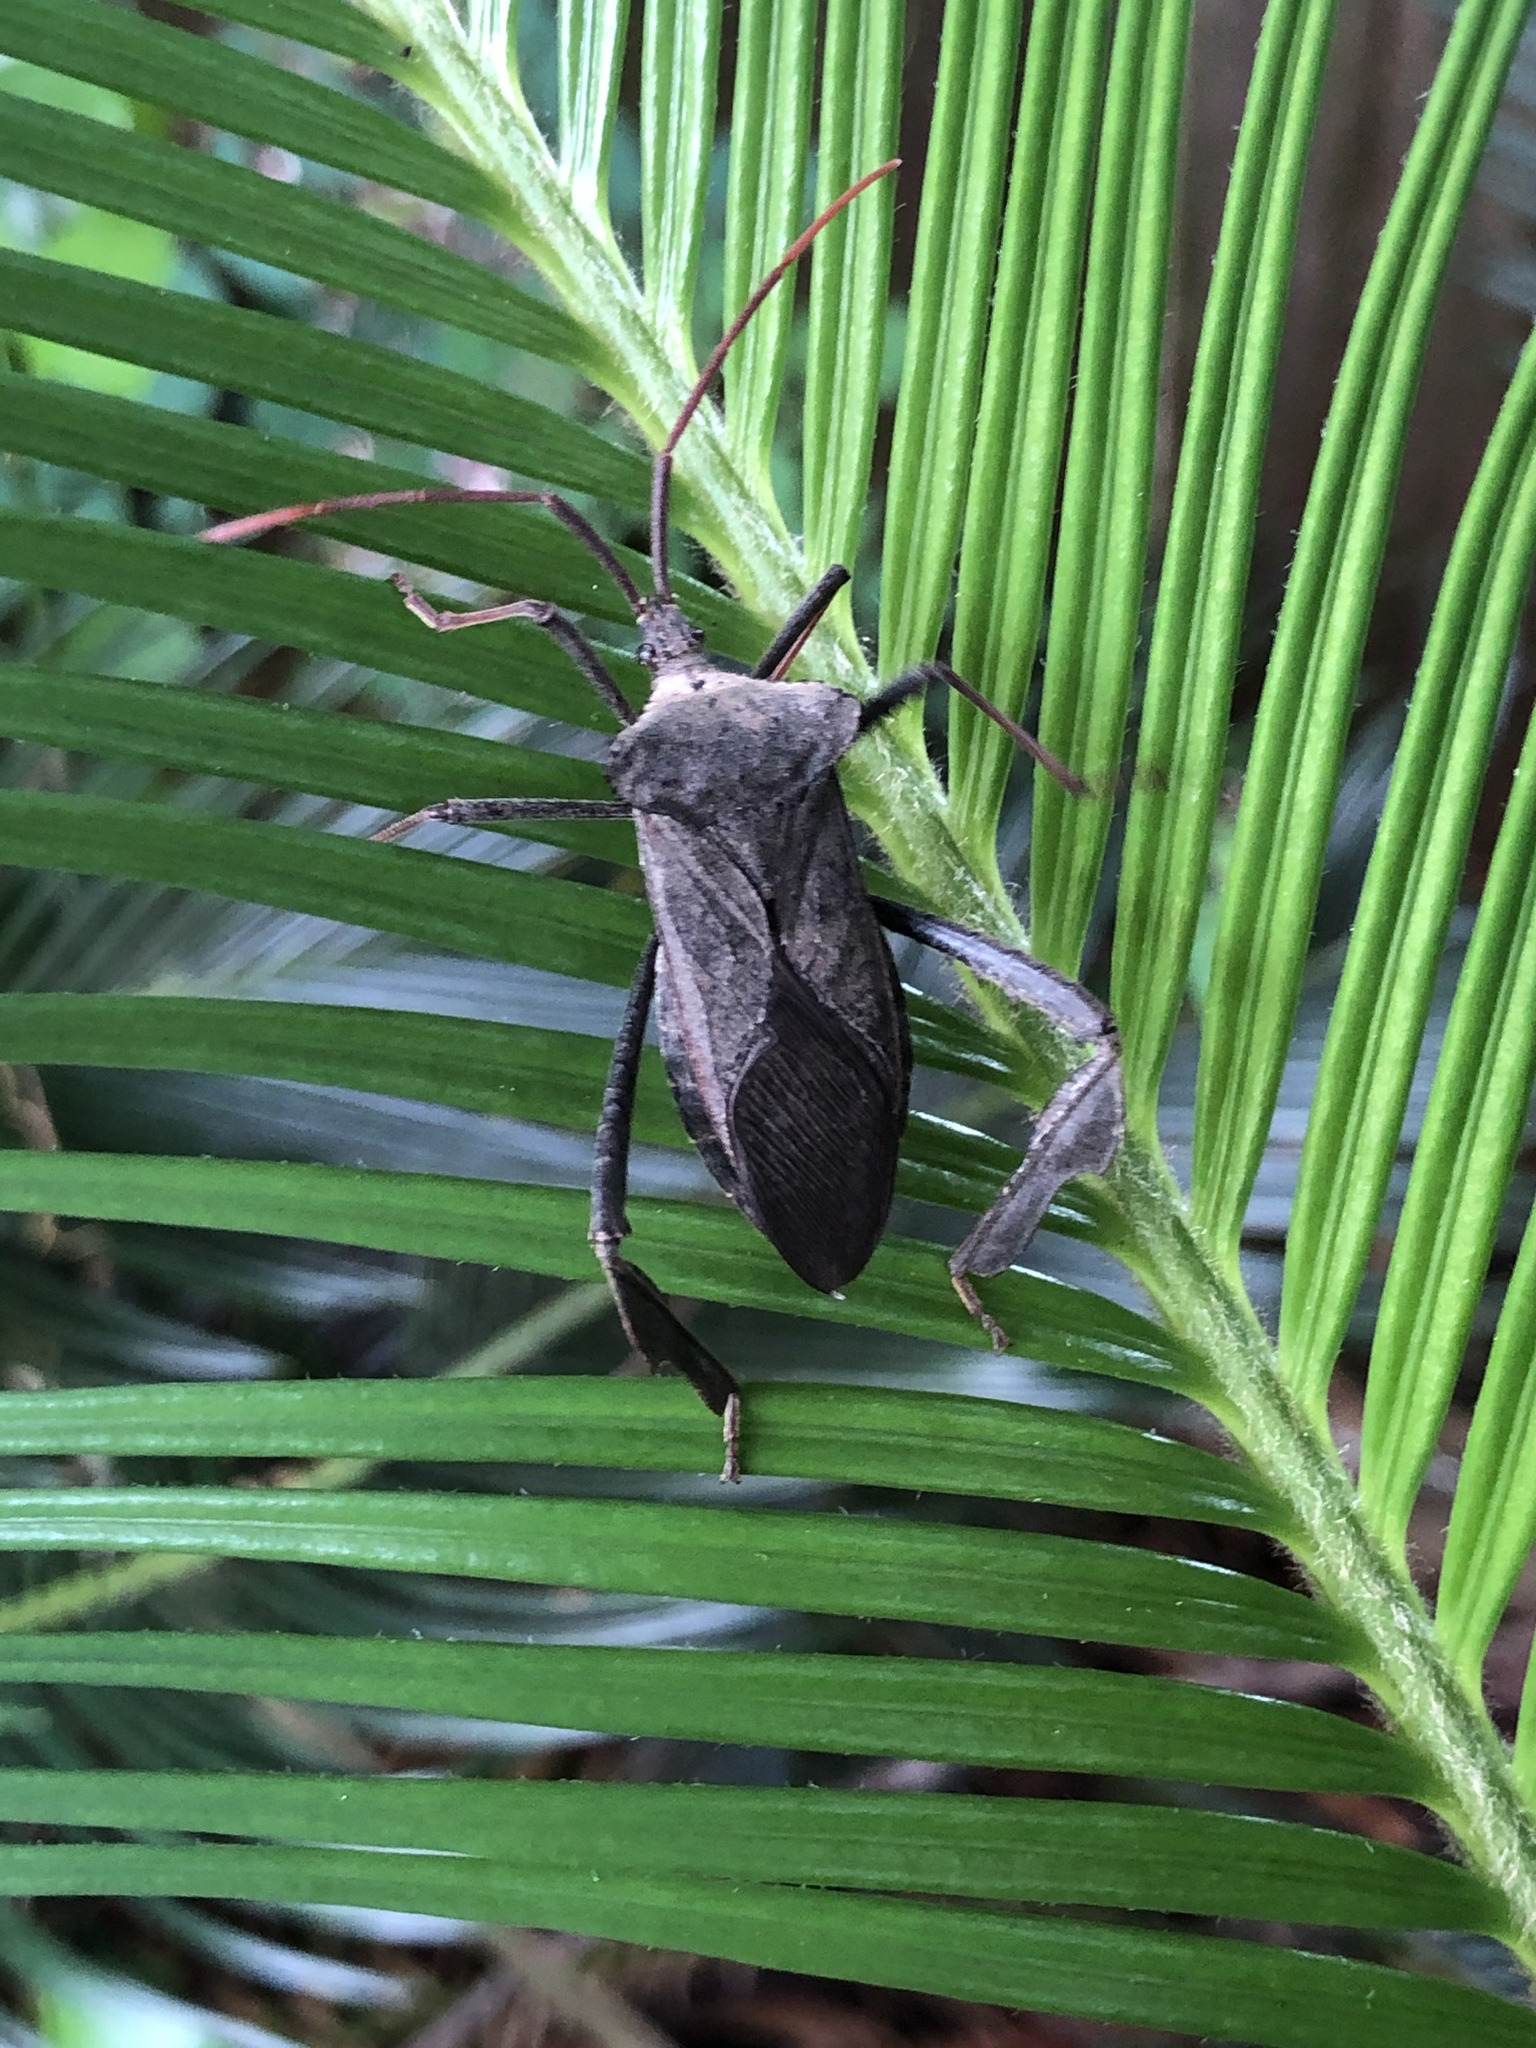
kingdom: Animalia
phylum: Arthropoda
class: Insecta
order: Hemiptera
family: Coreidae
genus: Acanthocephala
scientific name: Acanthocephala declivis
